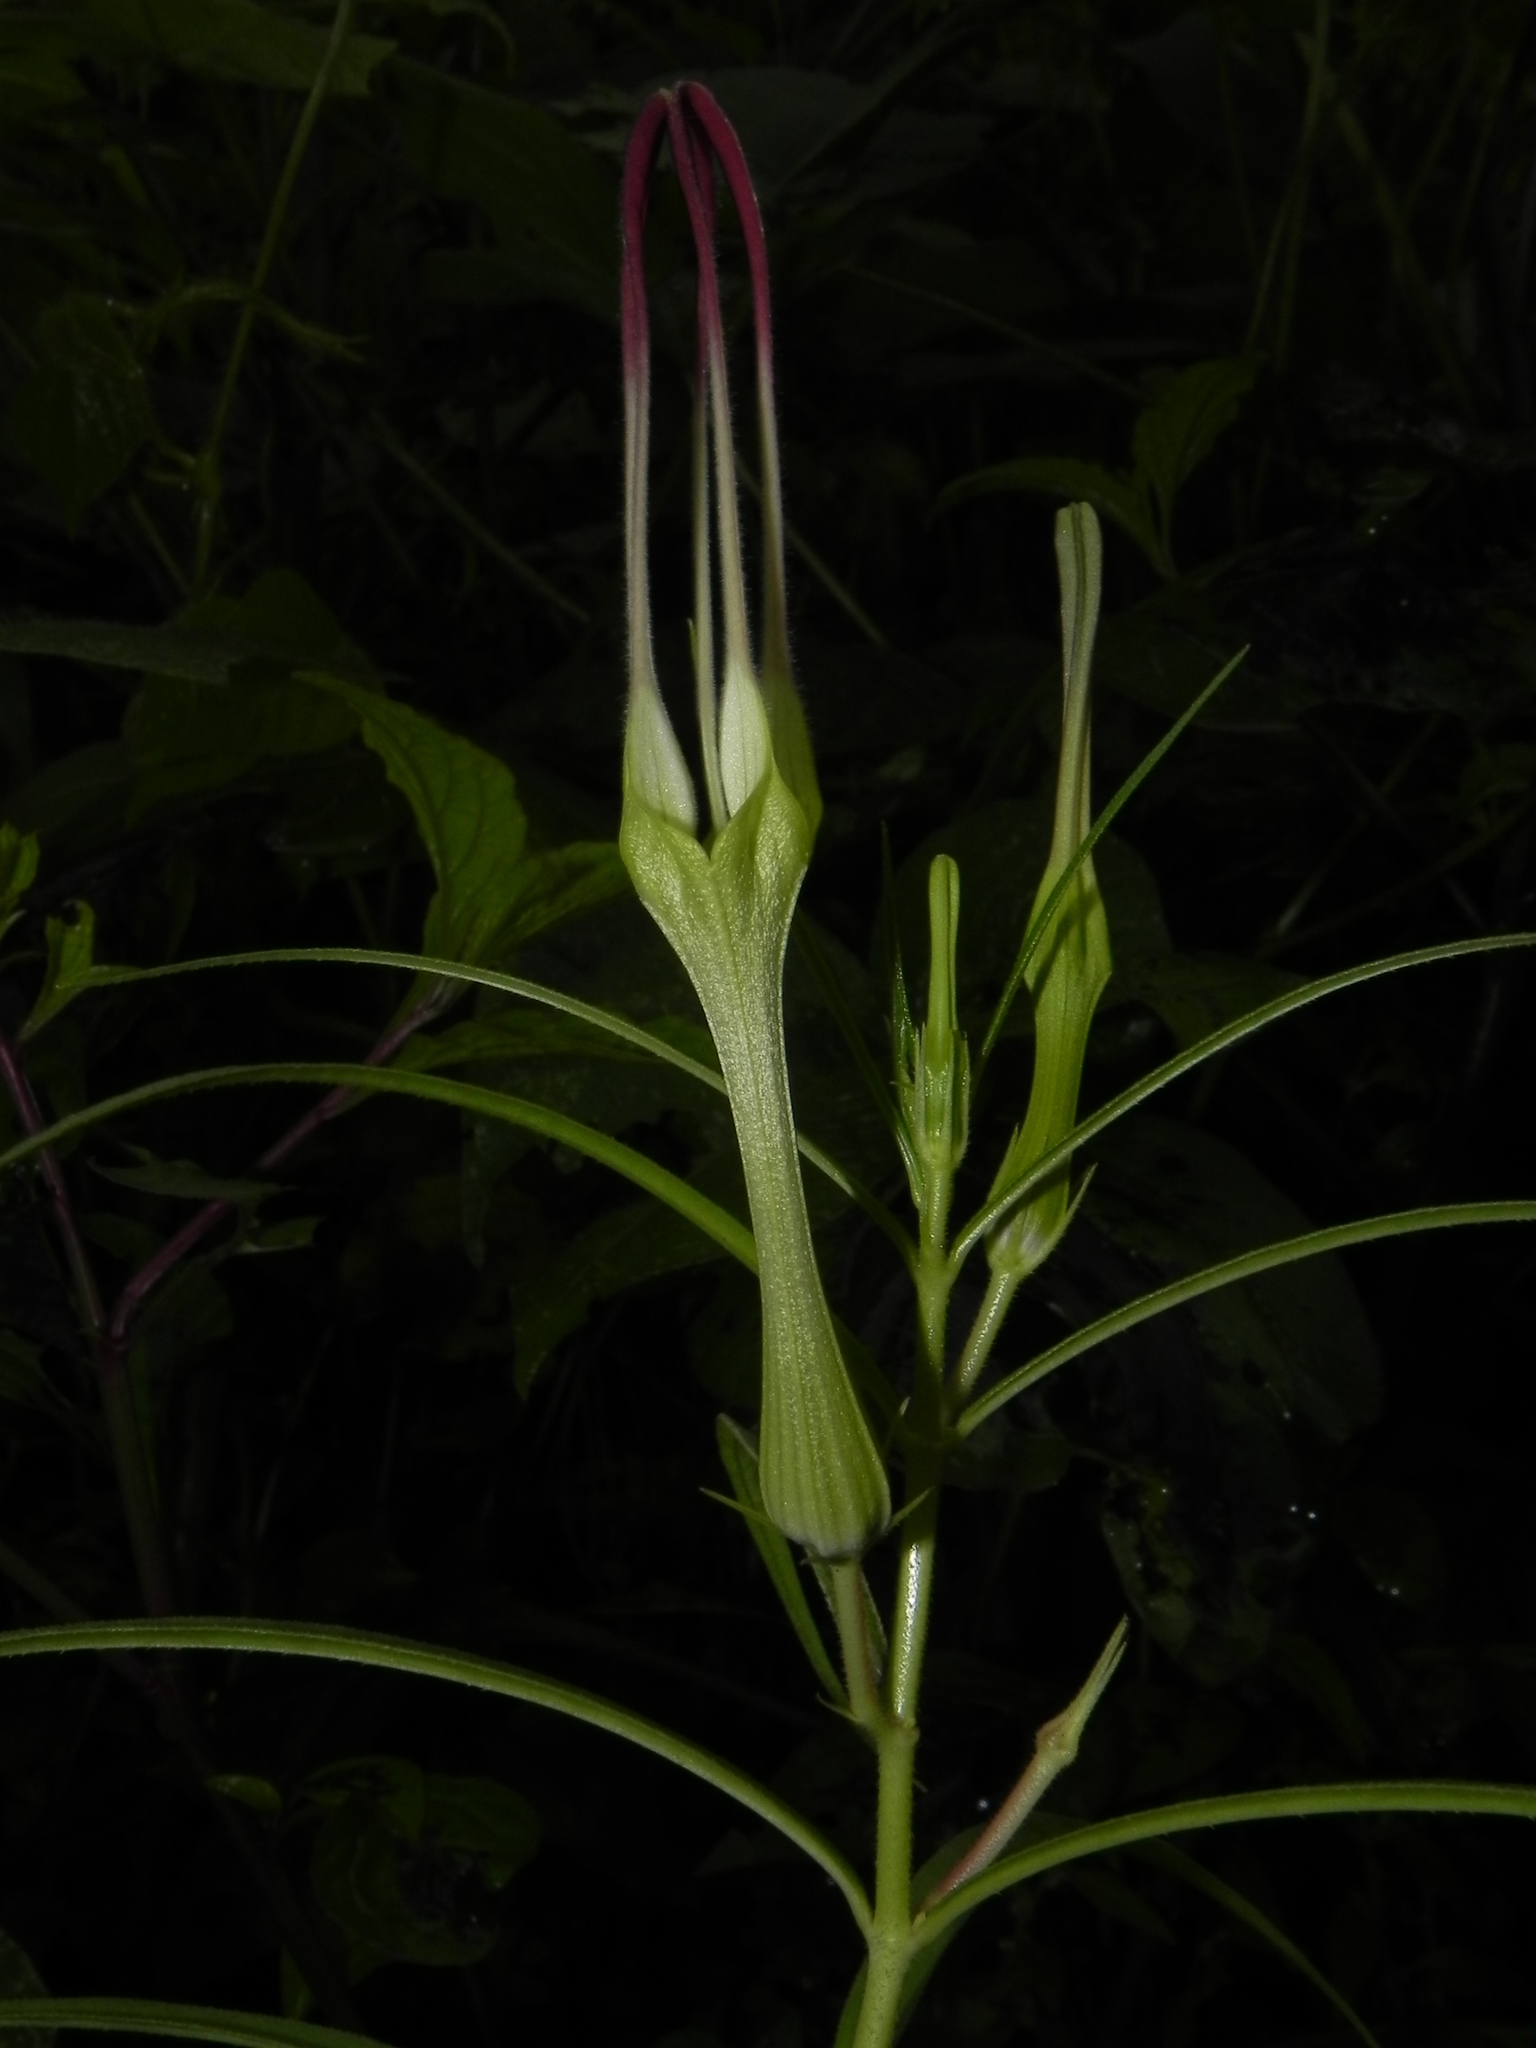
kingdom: Plantae
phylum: Tracheophyta
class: Magnoliopsida
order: Gentianales
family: Apocynaceae
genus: Ceropegia
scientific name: Ceropegia attenuata
